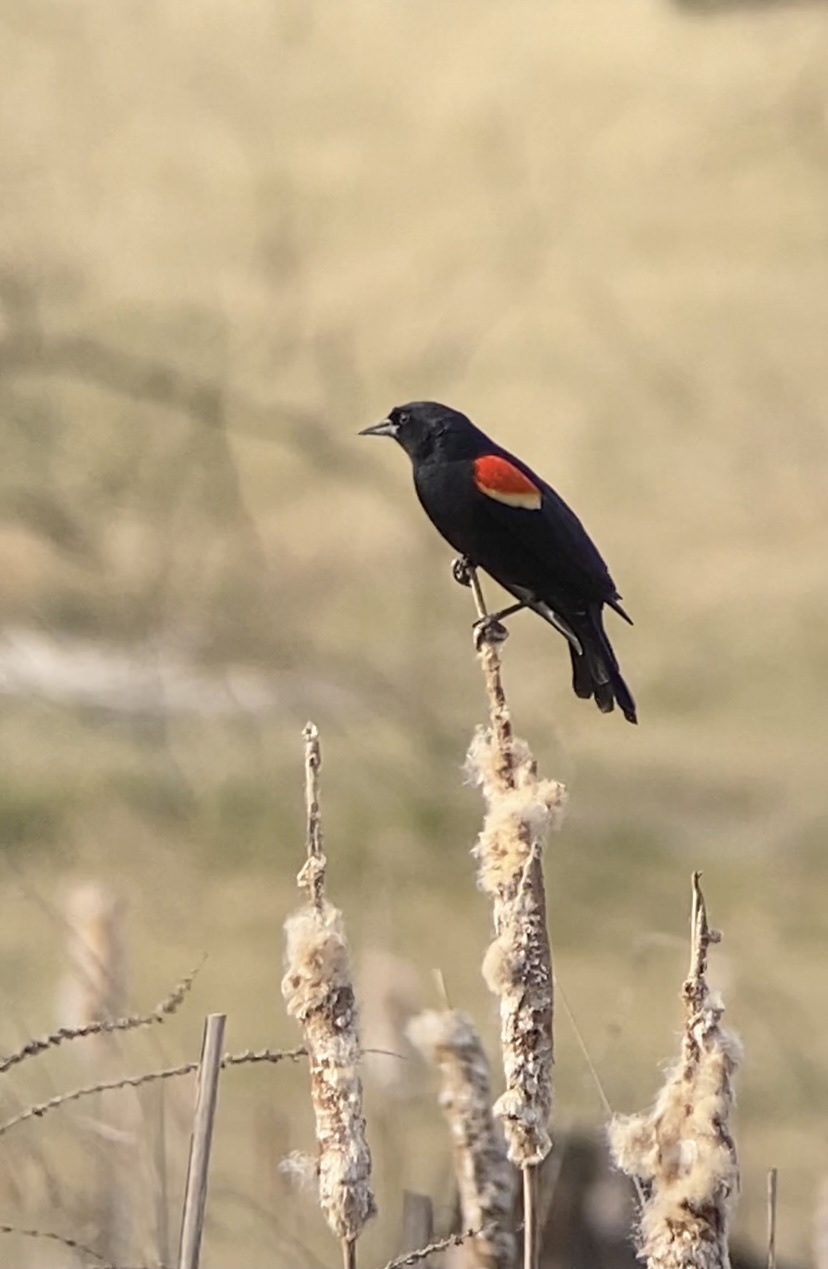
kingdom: Animalia
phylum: Chordata
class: Aves
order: Passeriformes
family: Icteridae
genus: Agelaius
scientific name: Agelaius phoeniceus
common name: Red-winged blackbird
